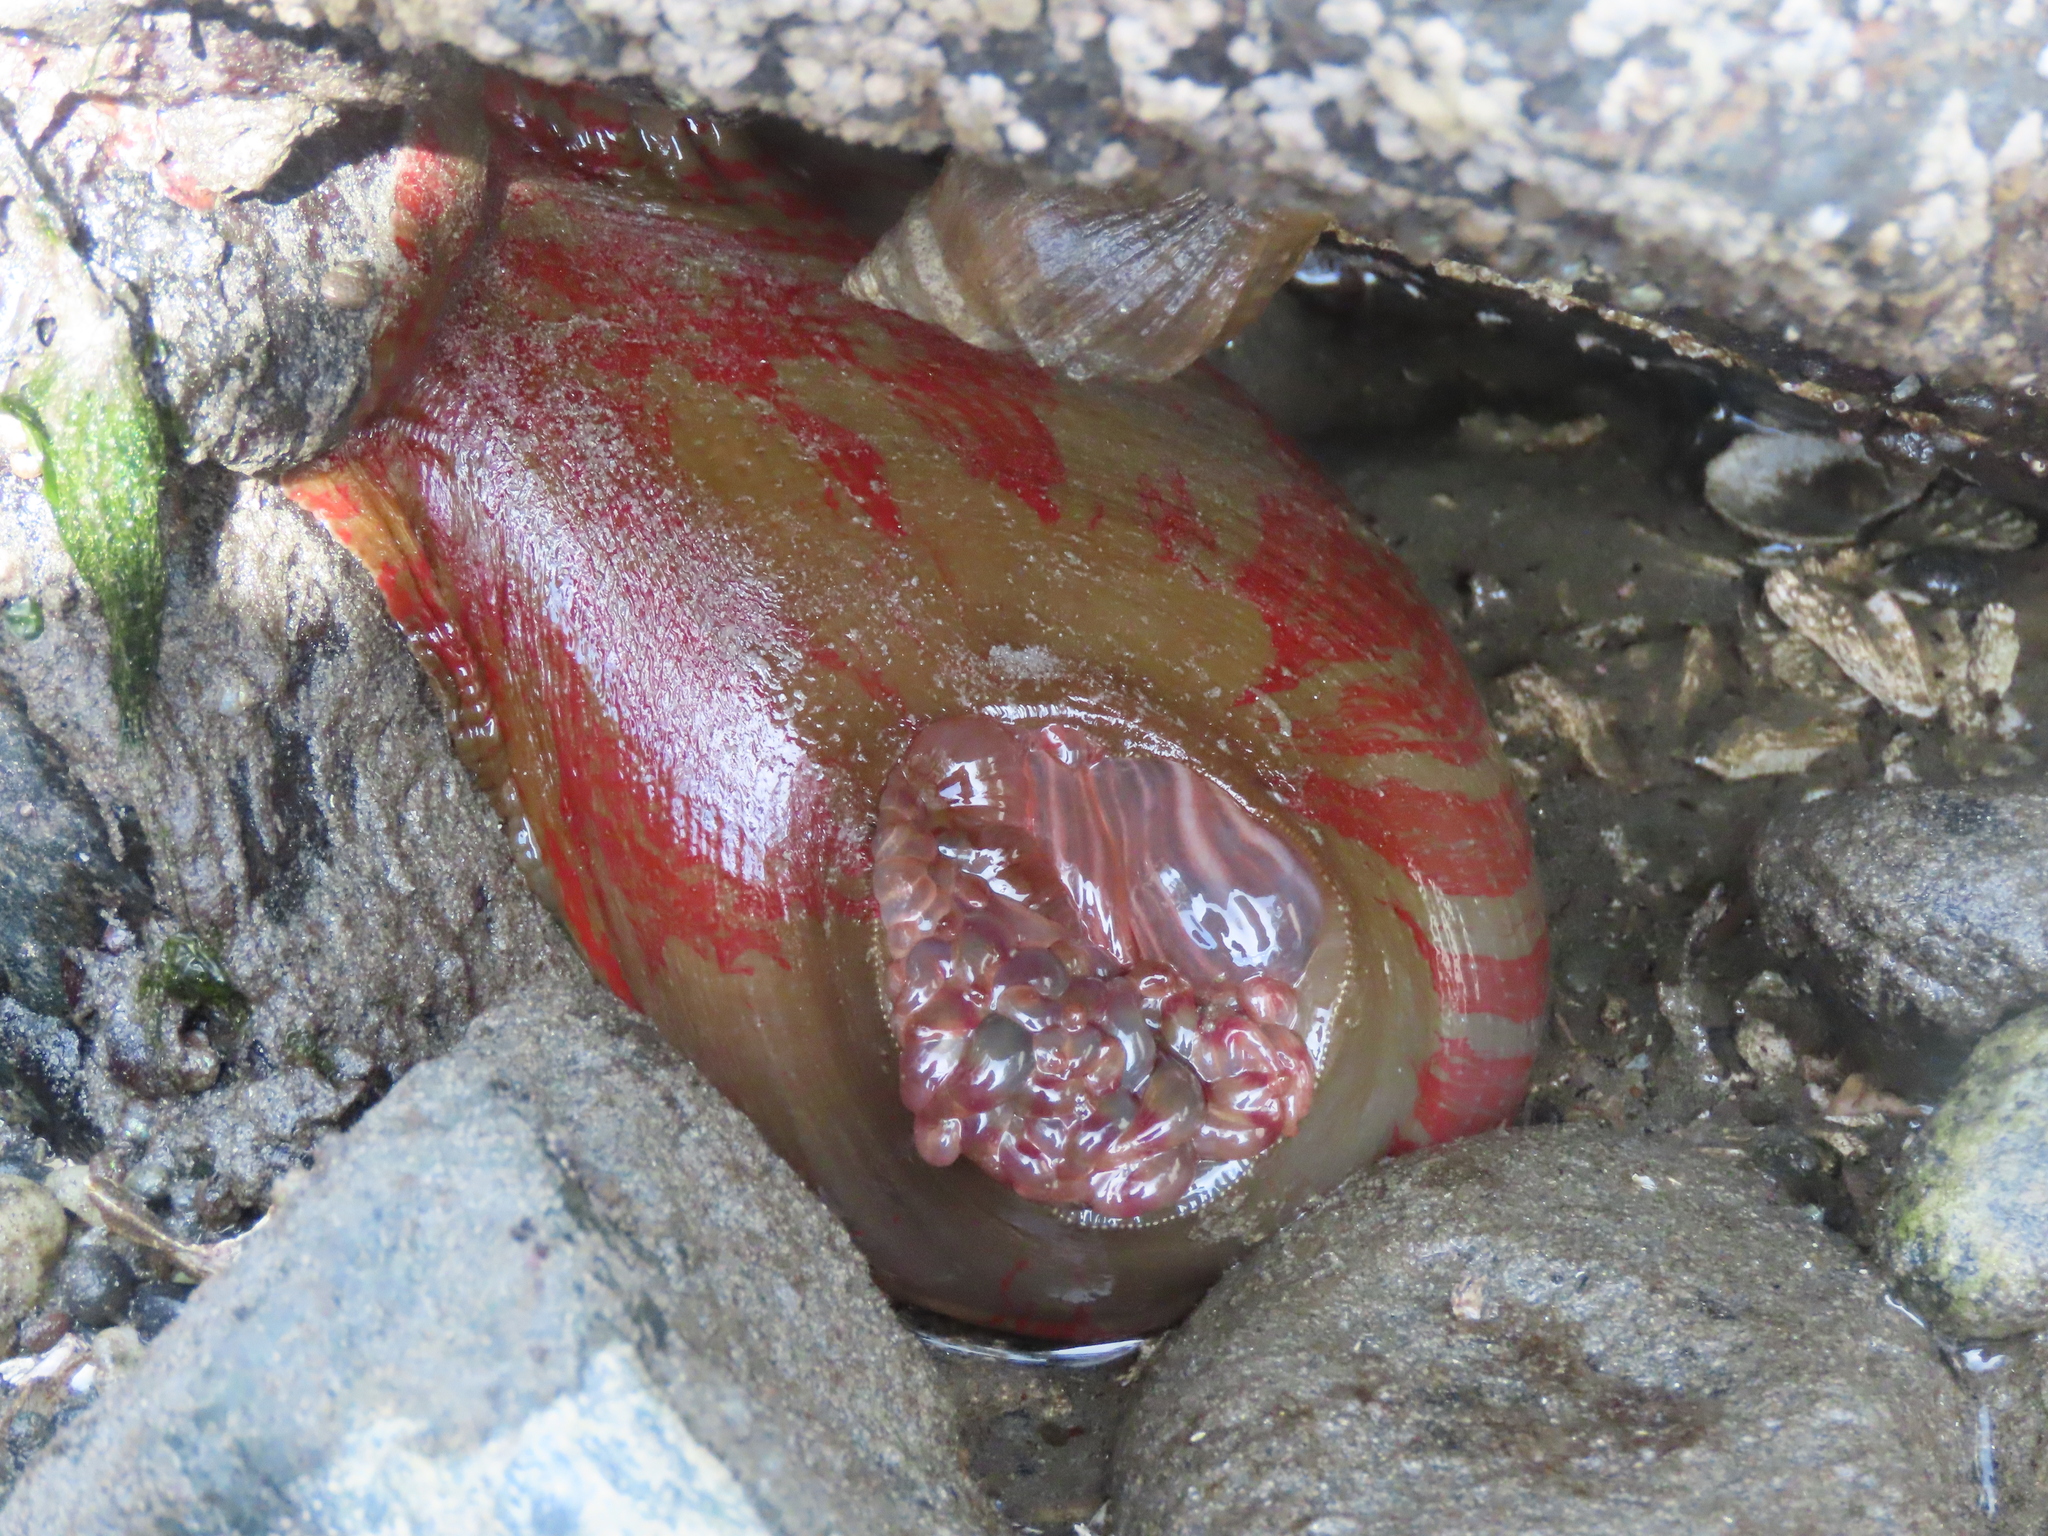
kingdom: Animalia
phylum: Cnidaria
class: Anthozoa
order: Actiniaria
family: Actiniidae
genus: Urticina
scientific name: Urticina grebelnyi
